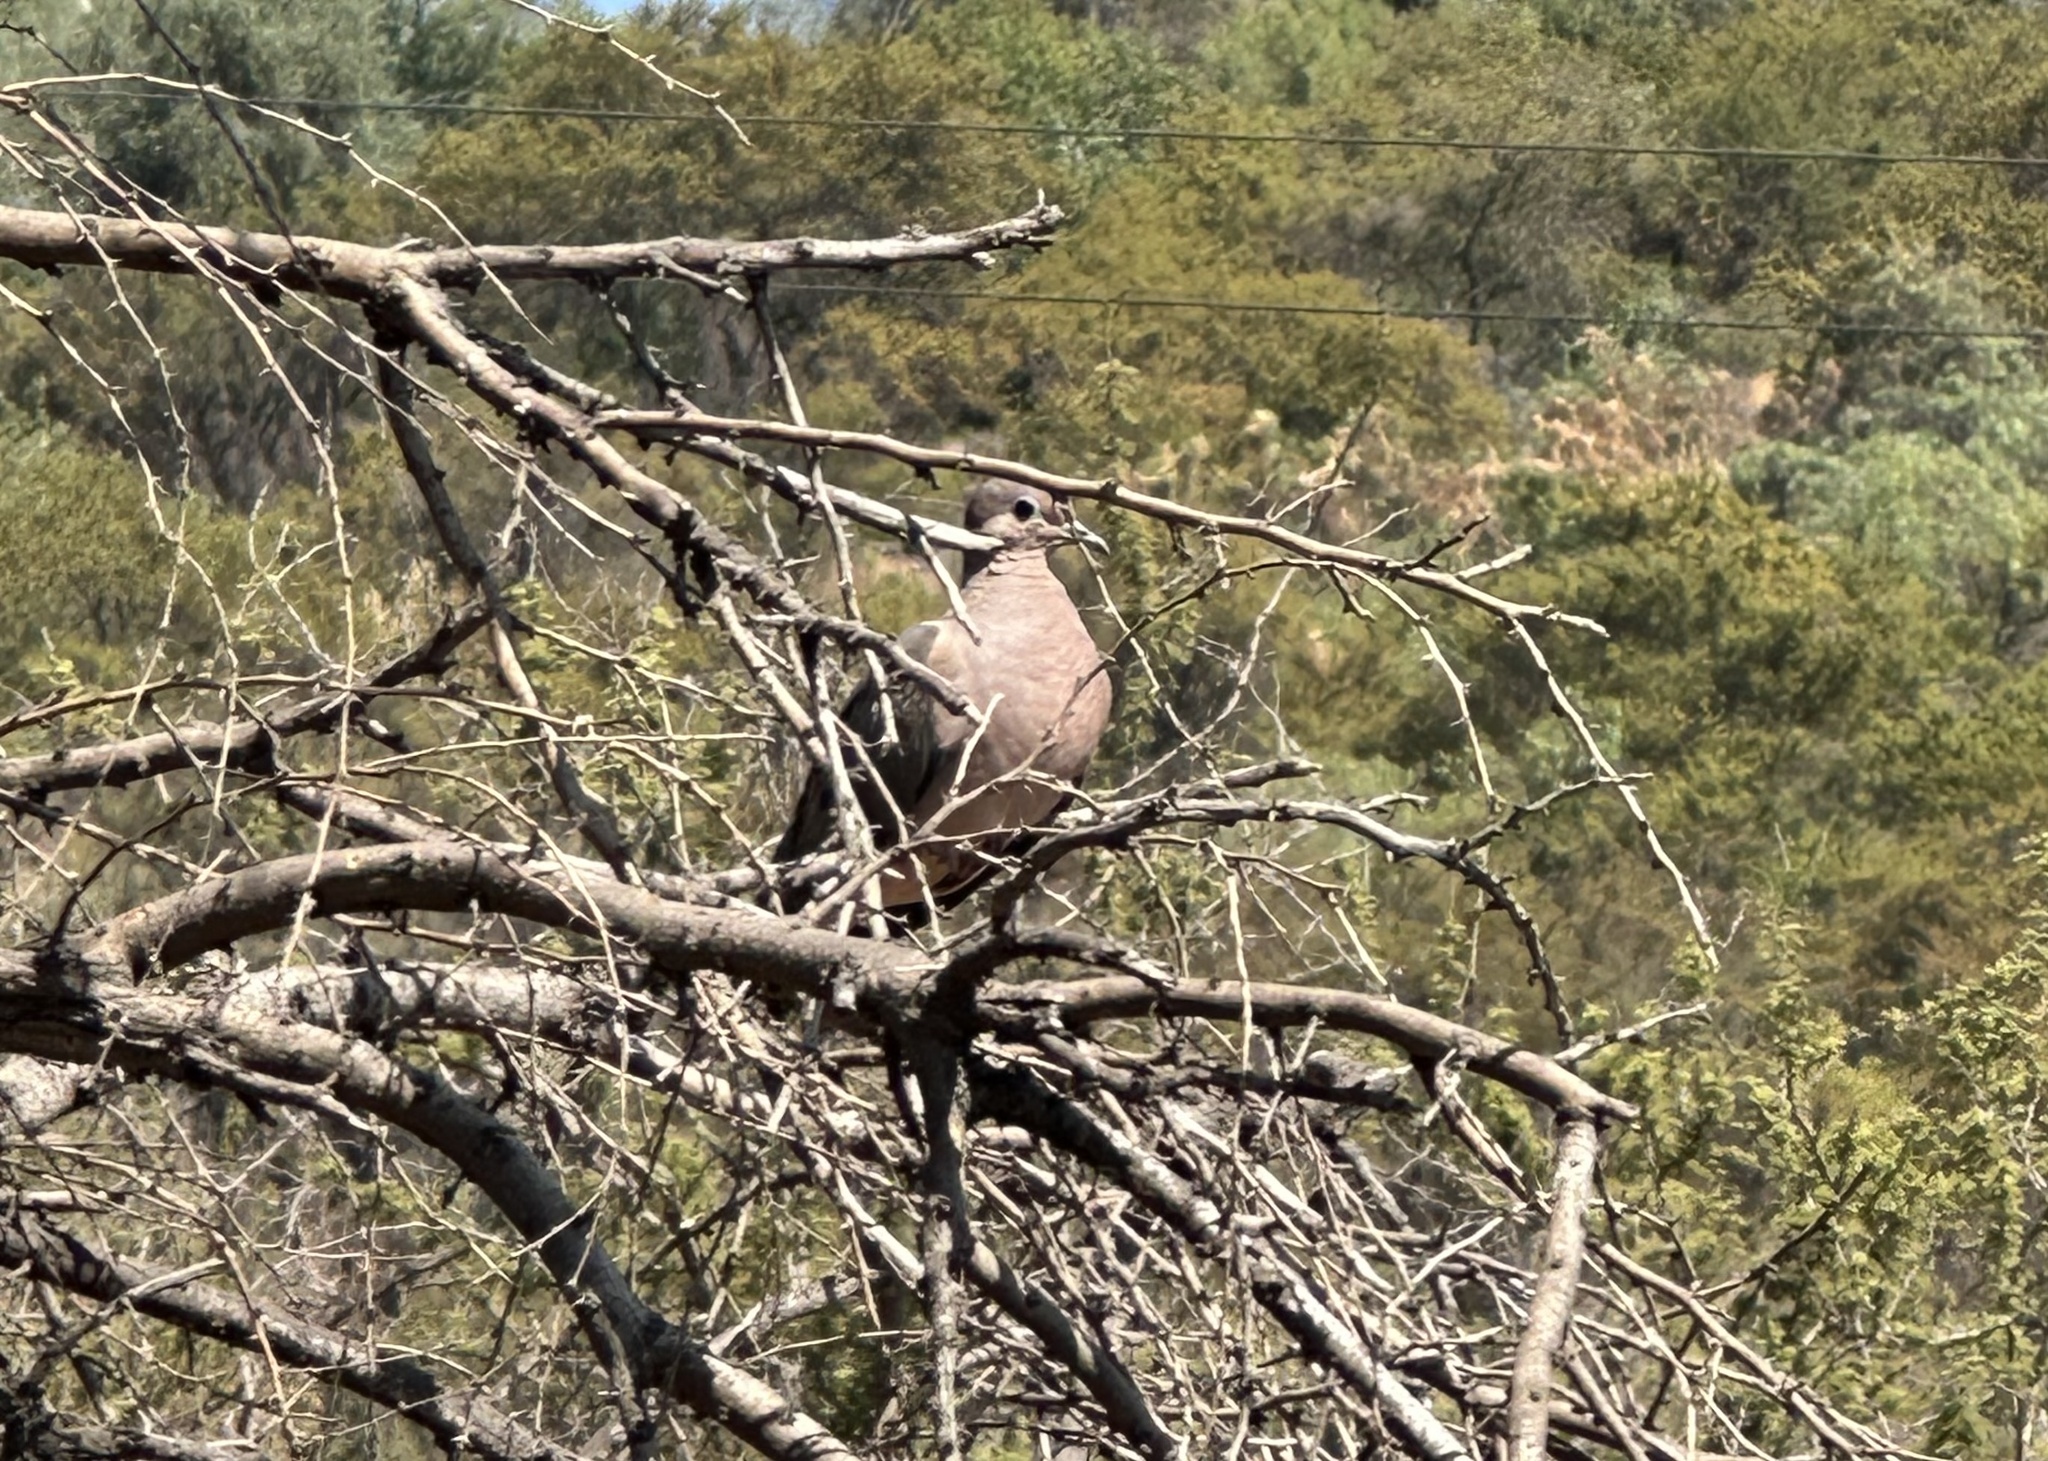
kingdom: Animalia
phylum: Chordata
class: Aves
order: Columbiformes
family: Columbidae
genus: Zenaida
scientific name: Zenaida auriculata
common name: Eared dove
